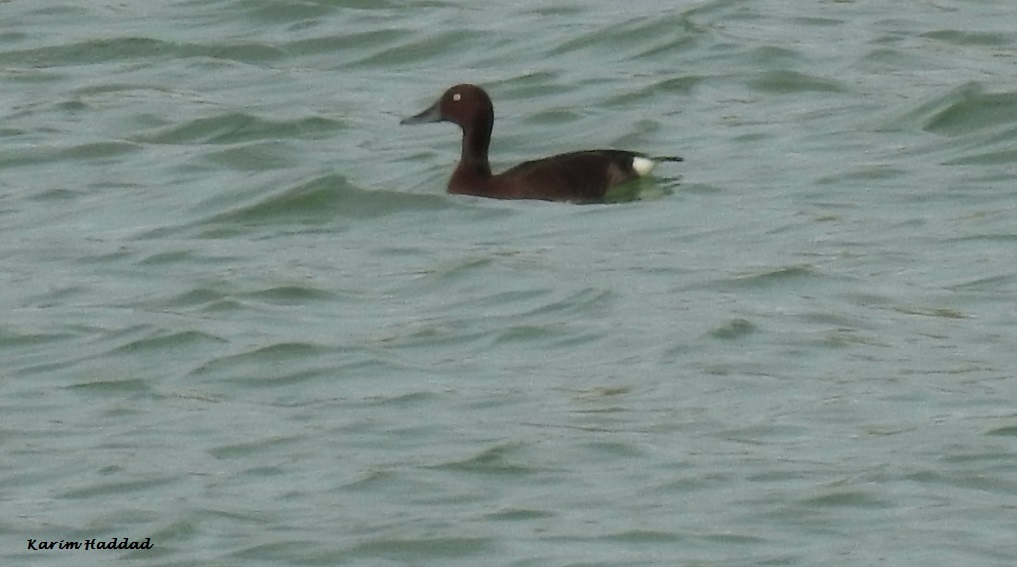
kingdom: Animalia
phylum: Chordata
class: Aves
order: Anseriformes
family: Anatidae
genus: Aythya
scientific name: Aythya nyroca
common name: Ferruginous duck
